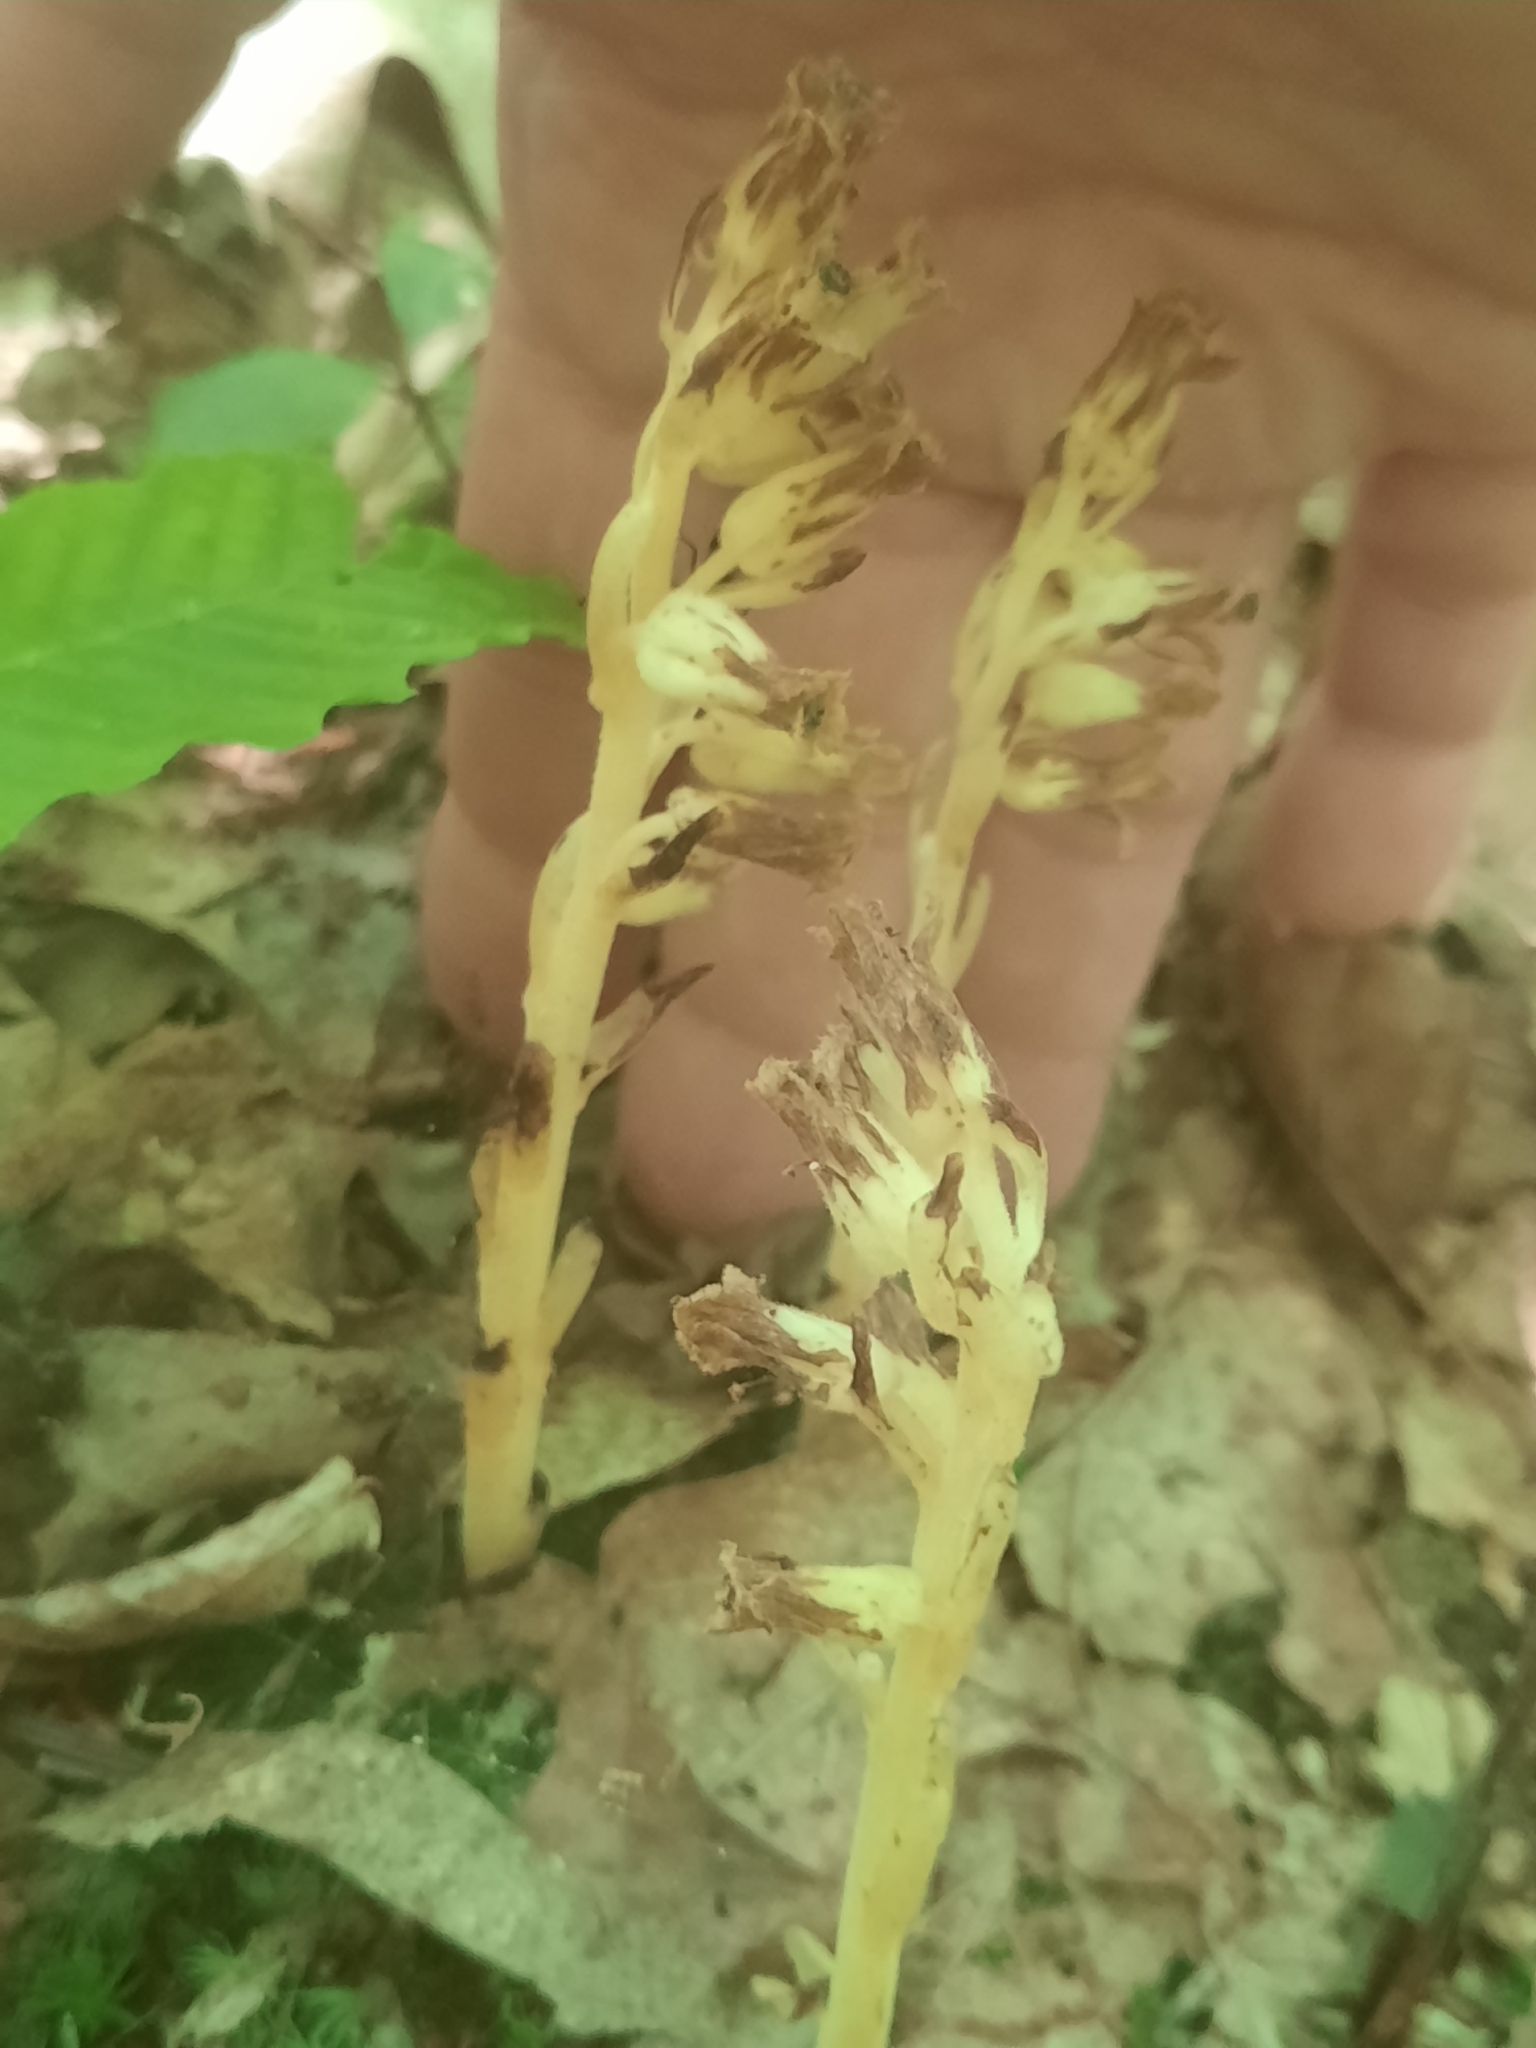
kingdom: Plantae
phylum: Tracheophyta
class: Magnoliopsida
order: Ericales
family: Ericaceae
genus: Hypopitys
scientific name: Hypopitys monotropa
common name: Yellow bird's-nest
